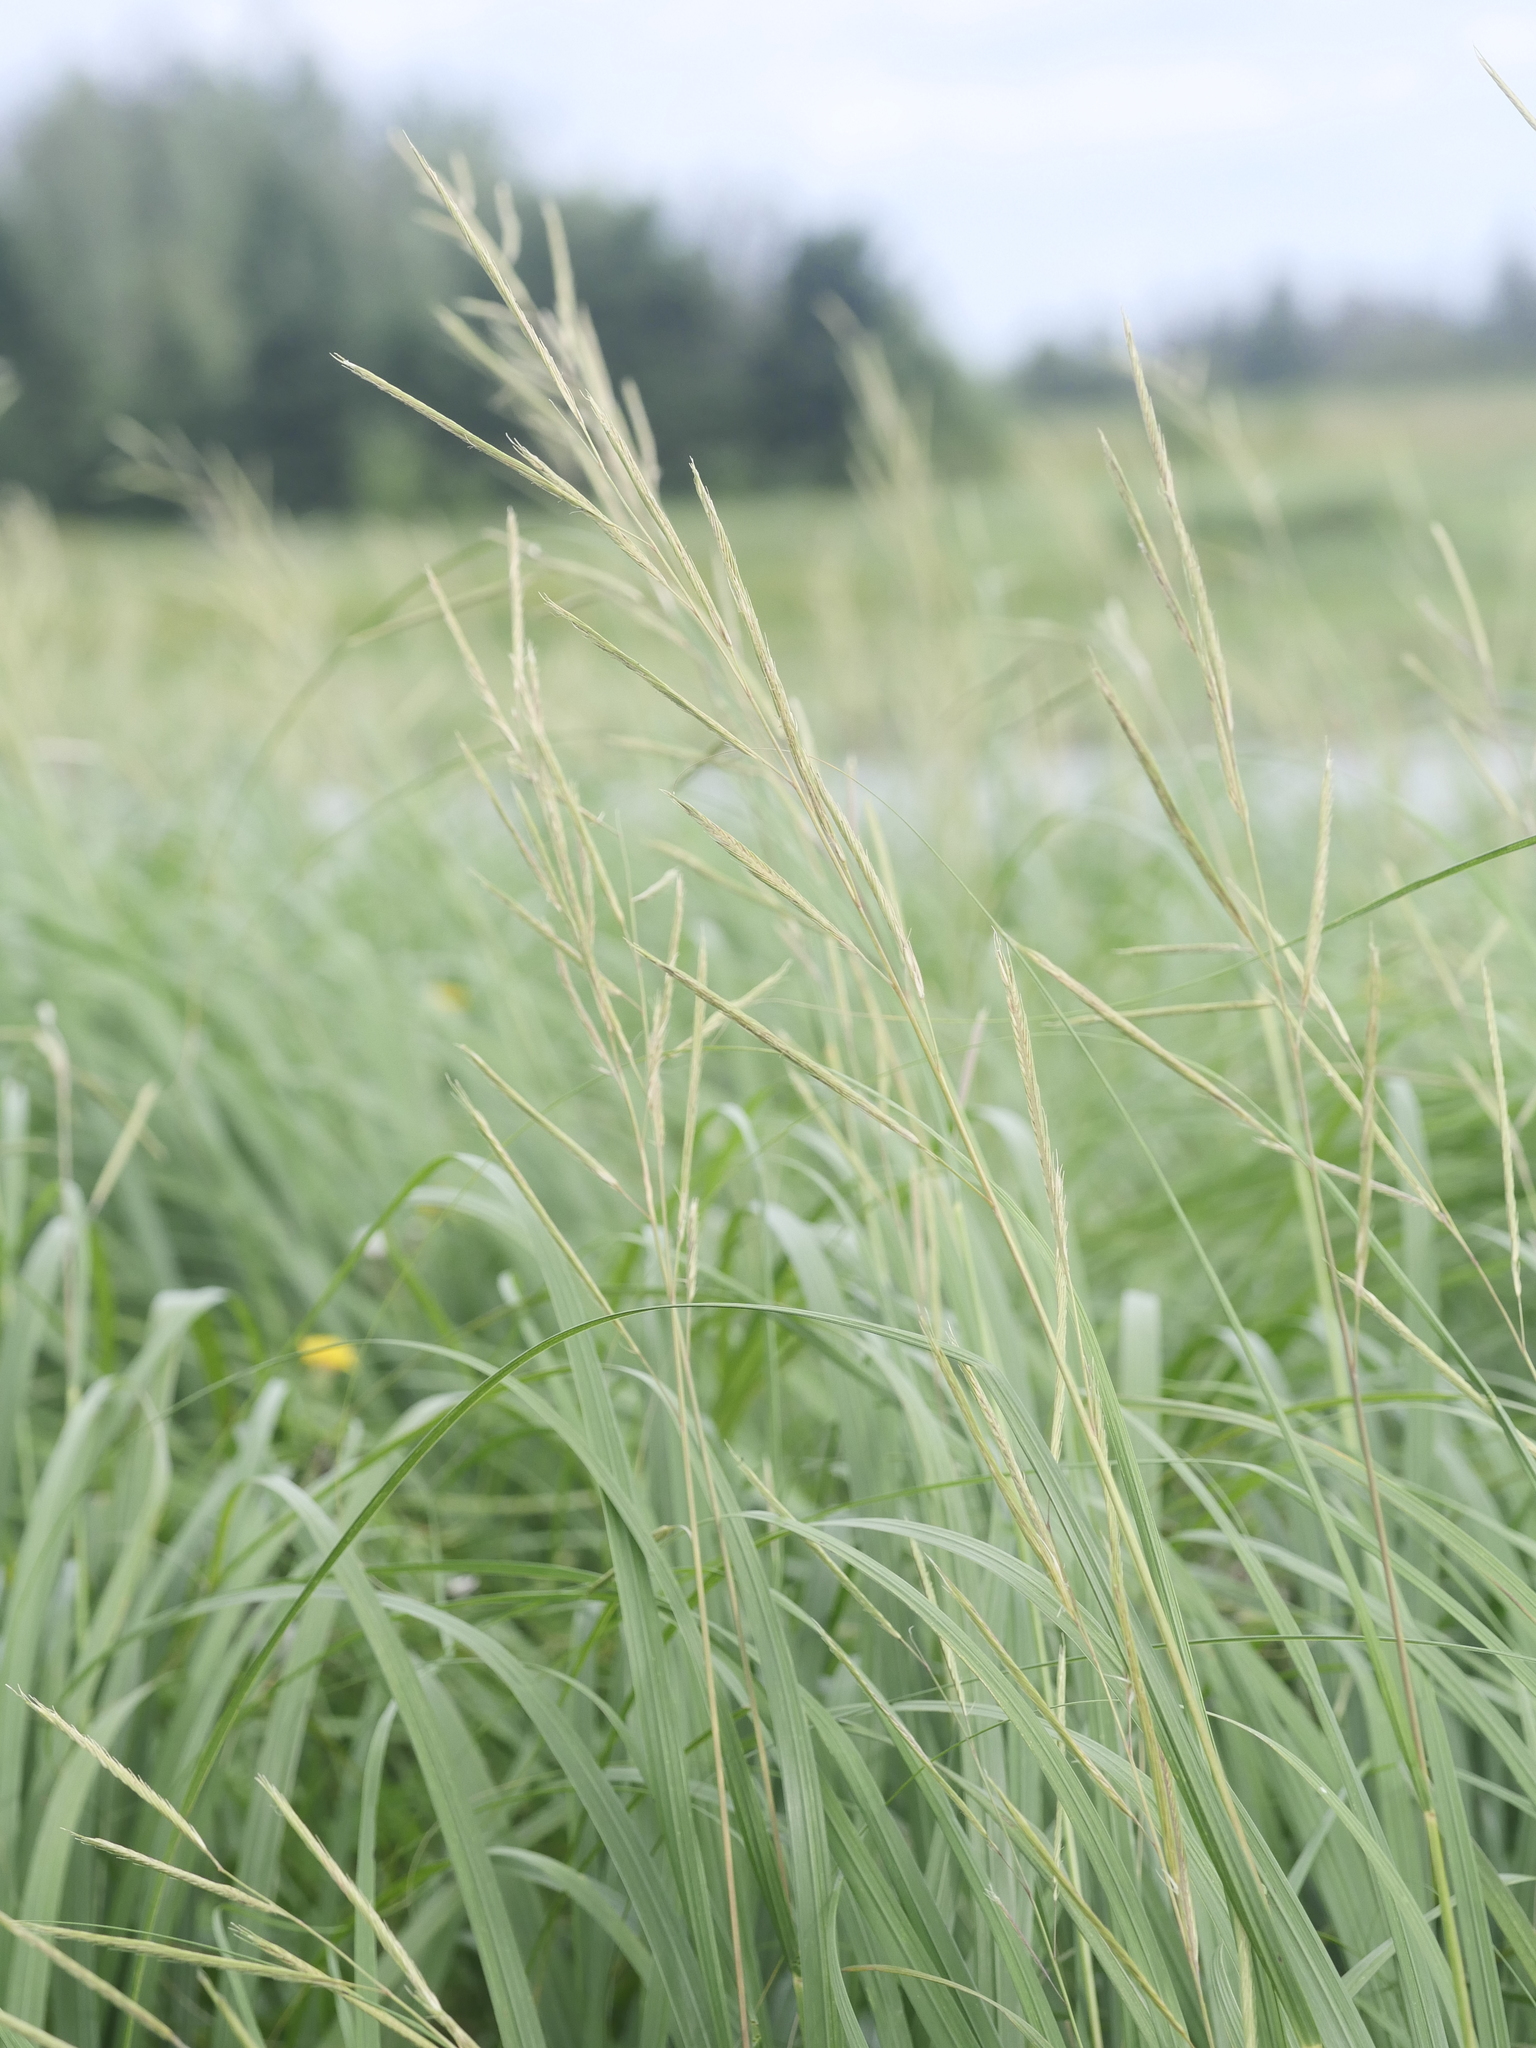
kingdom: Plantae
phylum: Tracheophyta
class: Liliopsida
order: Poales
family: Poaceae
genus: Sporobolus
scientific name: Sporobolus michauxianus
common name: Freshwater cordgrass
